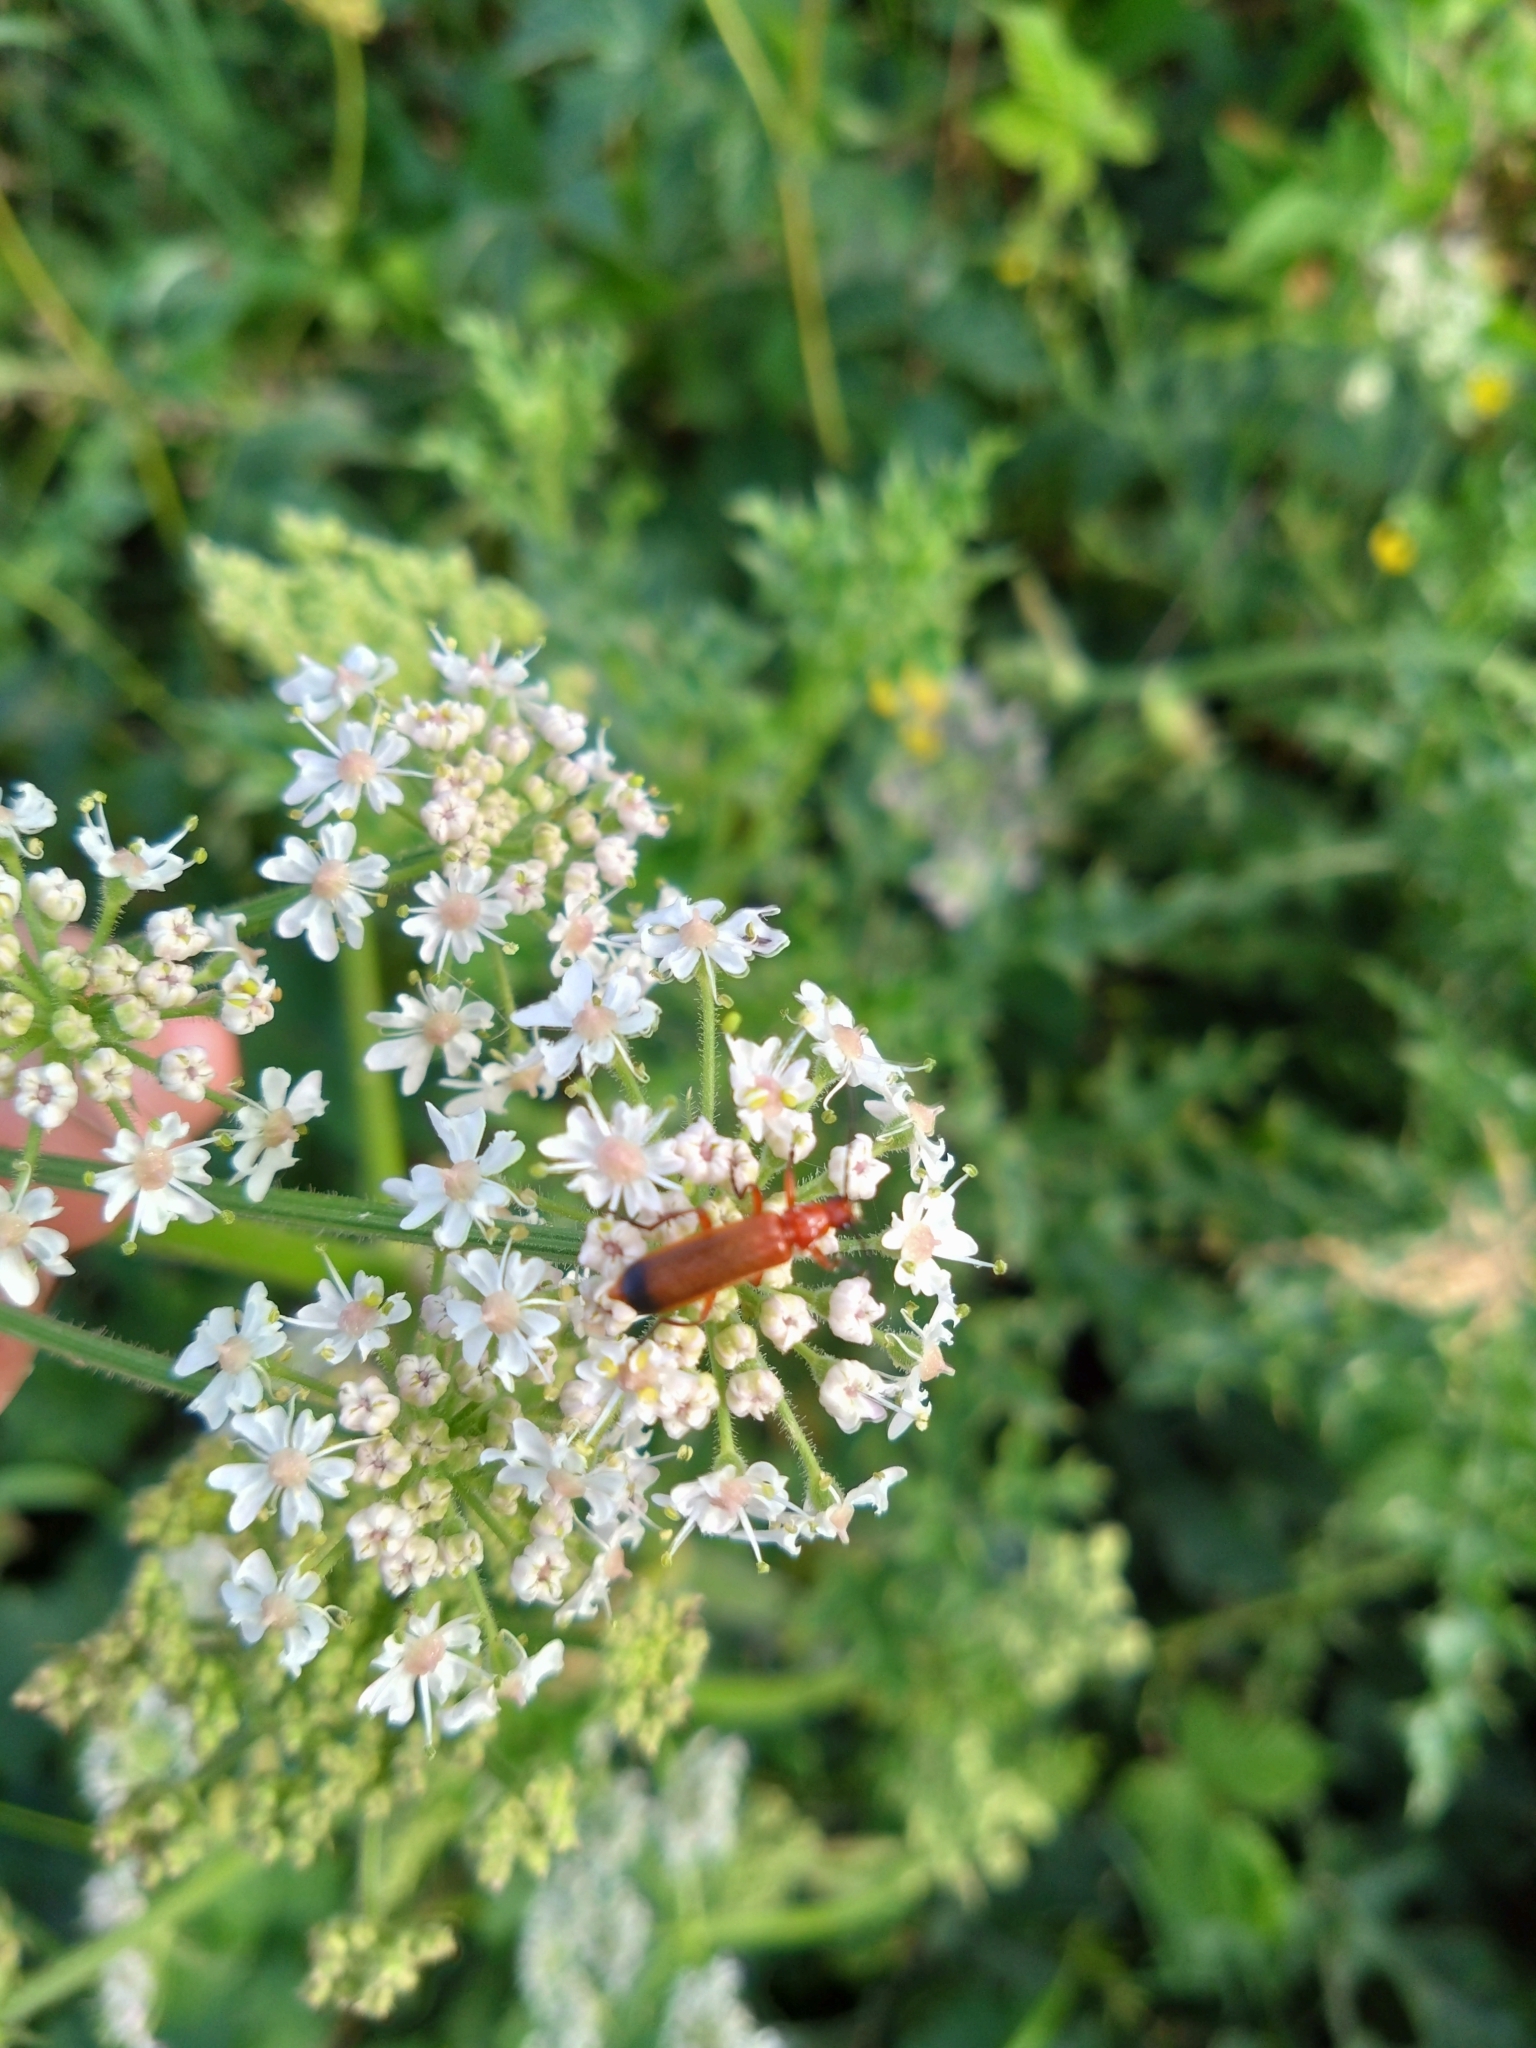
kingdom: Animalia
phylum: Arthropoda
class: Insecta
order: Coleoptera
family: Cantharidae
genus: Rhagonycha
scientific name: Rhagonycha fulva
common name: Common red soldier beetle
